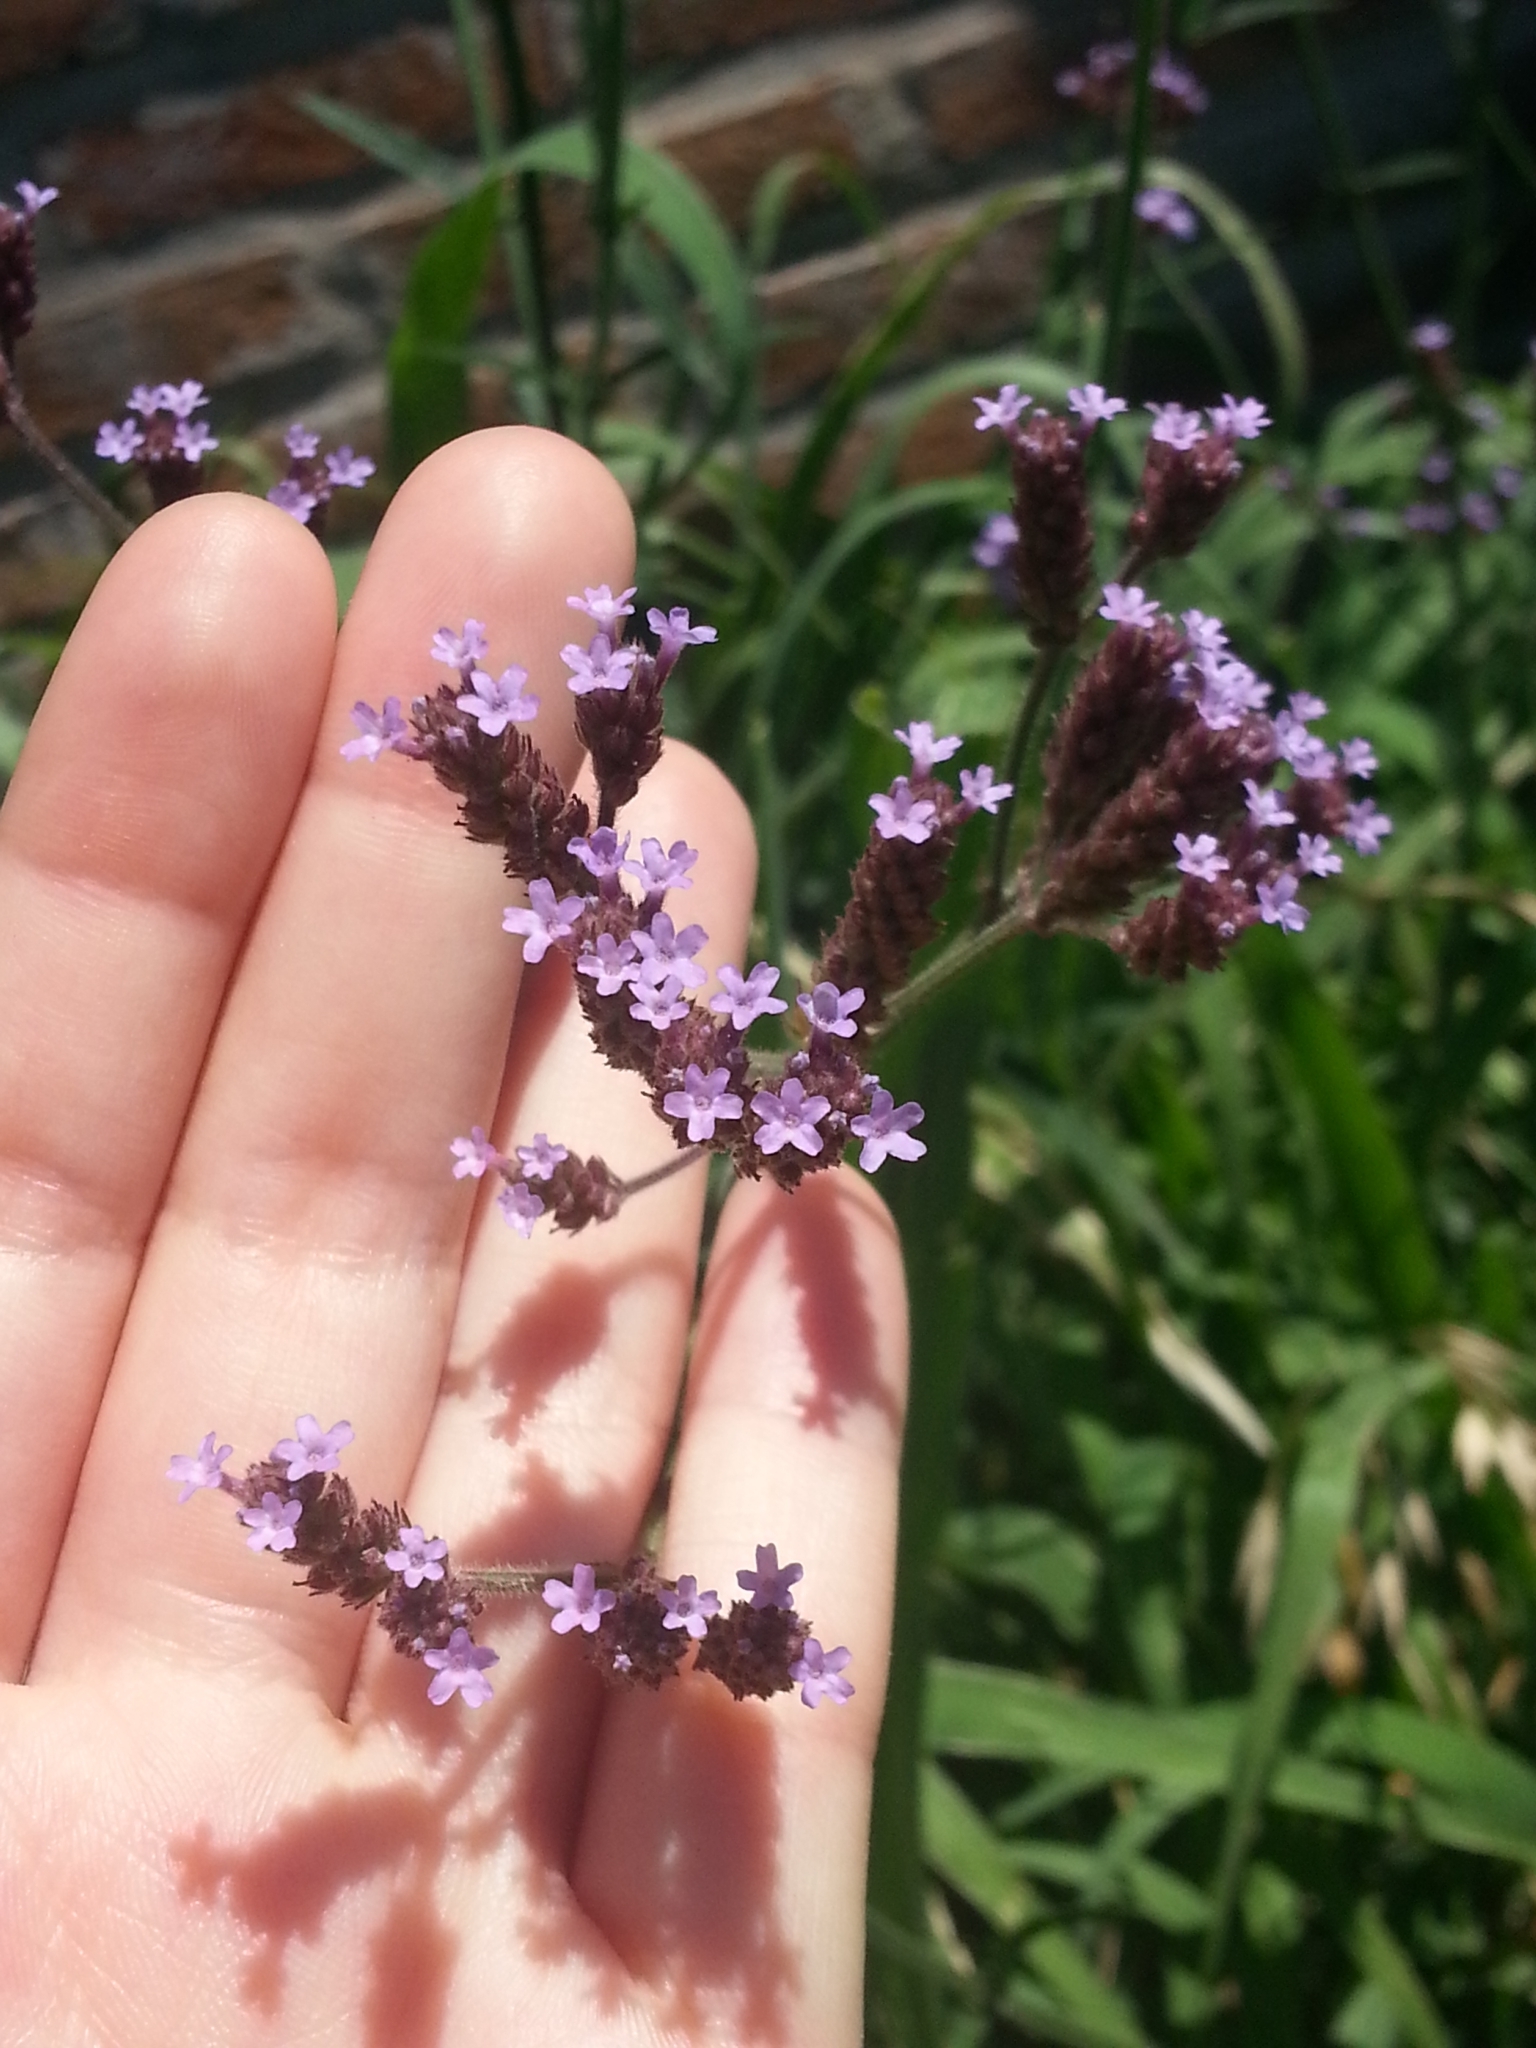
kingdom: Plantae
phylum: Tracheophyta
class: Magnoliopsida
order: Lamiales
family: Verbenaceae
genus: Verbena
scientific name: Verbena bonariensis
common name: Purpletop vervain
